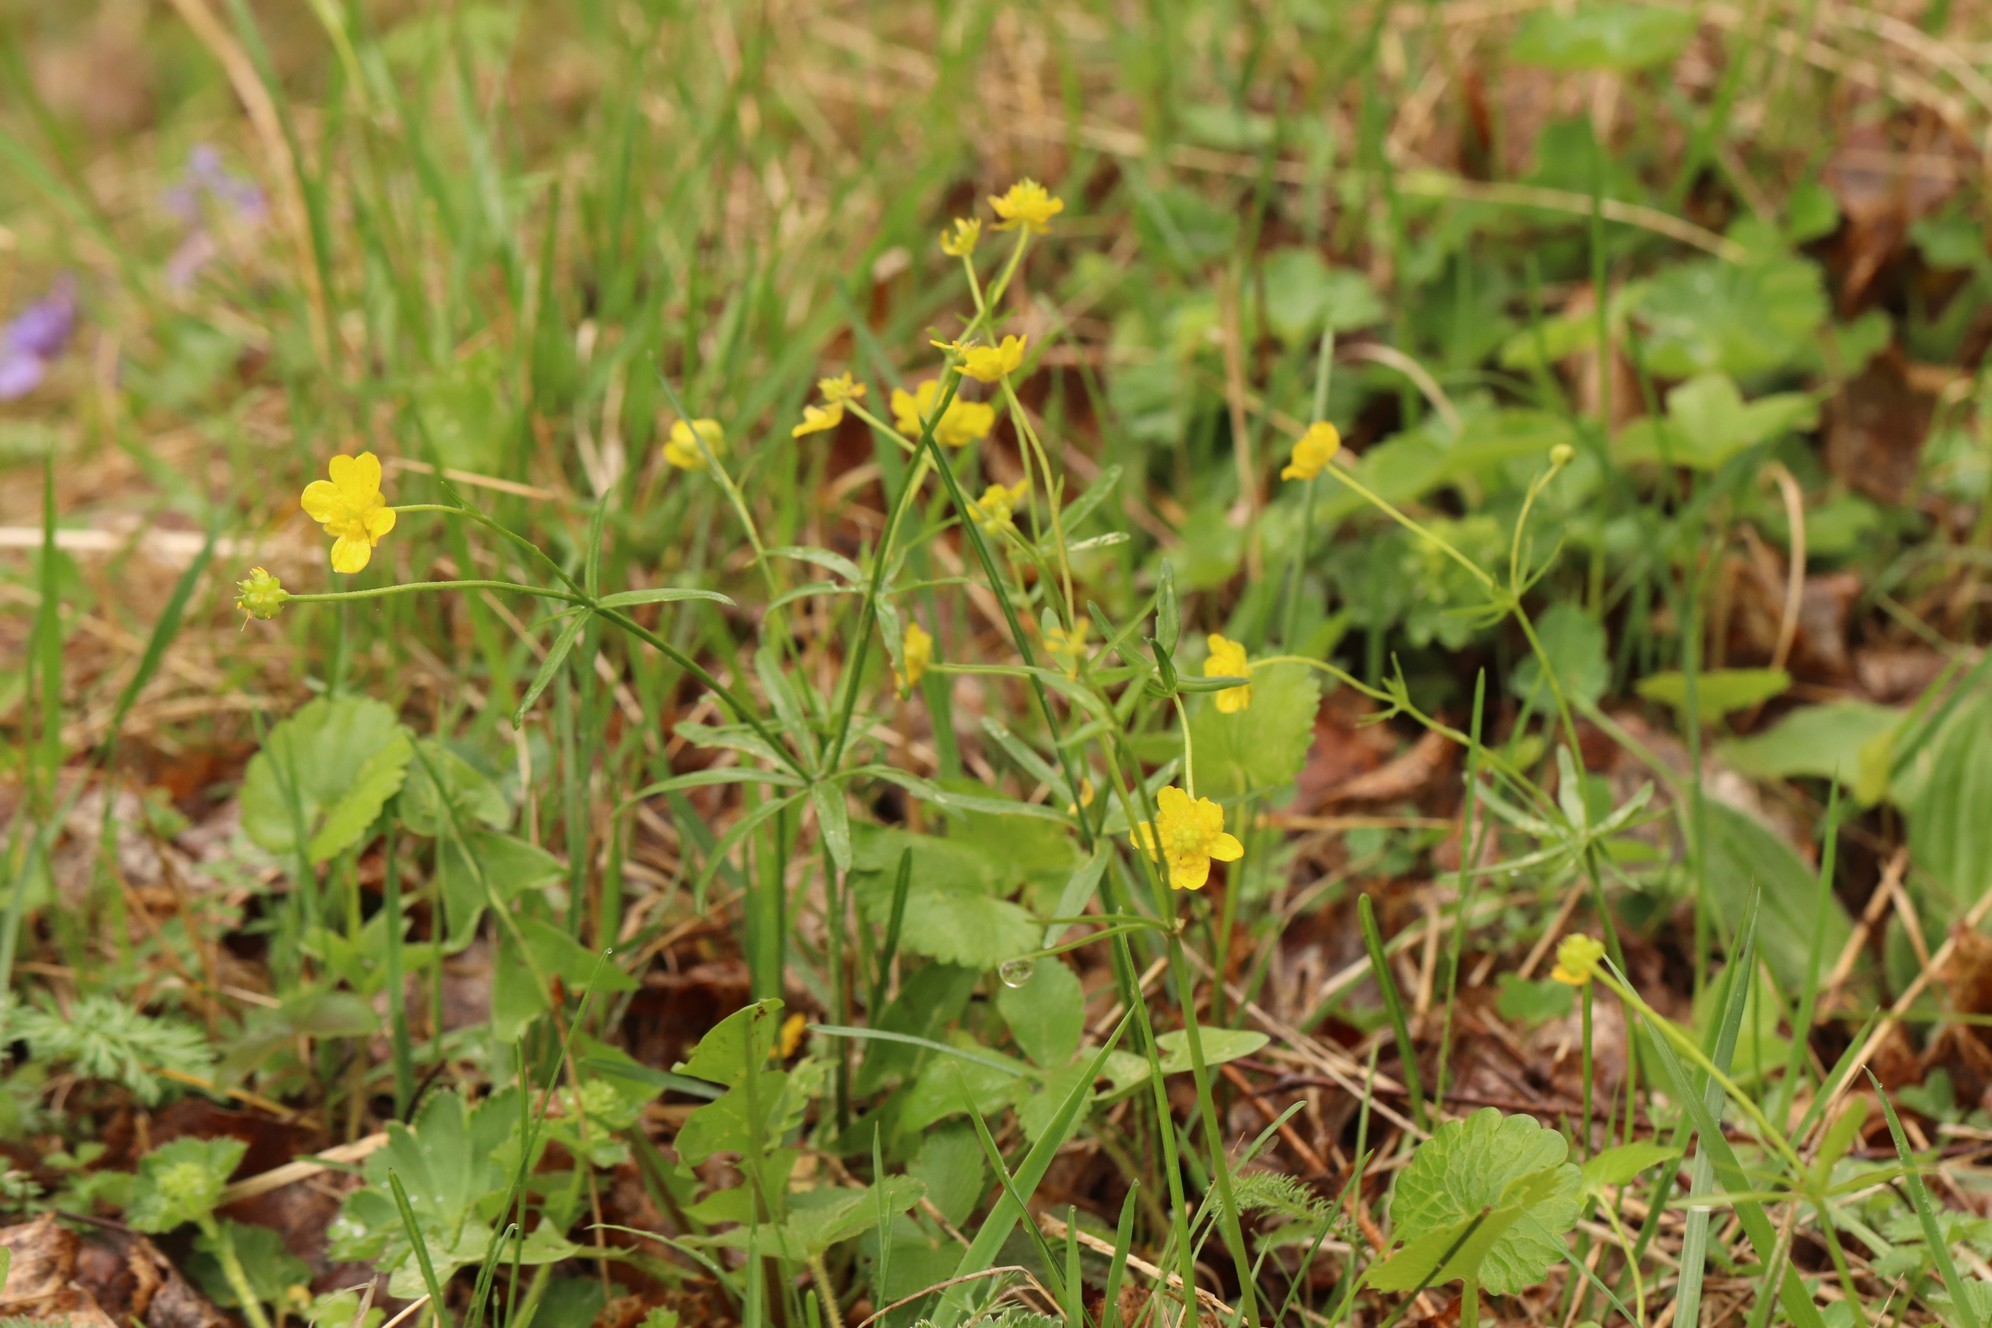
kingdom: Plantae
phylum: Tracheophyta
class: Magnoliopsida
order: Ranunculales
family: Ranunculaceae
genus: Ranunculus
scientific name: Ranunculus monophyllus
